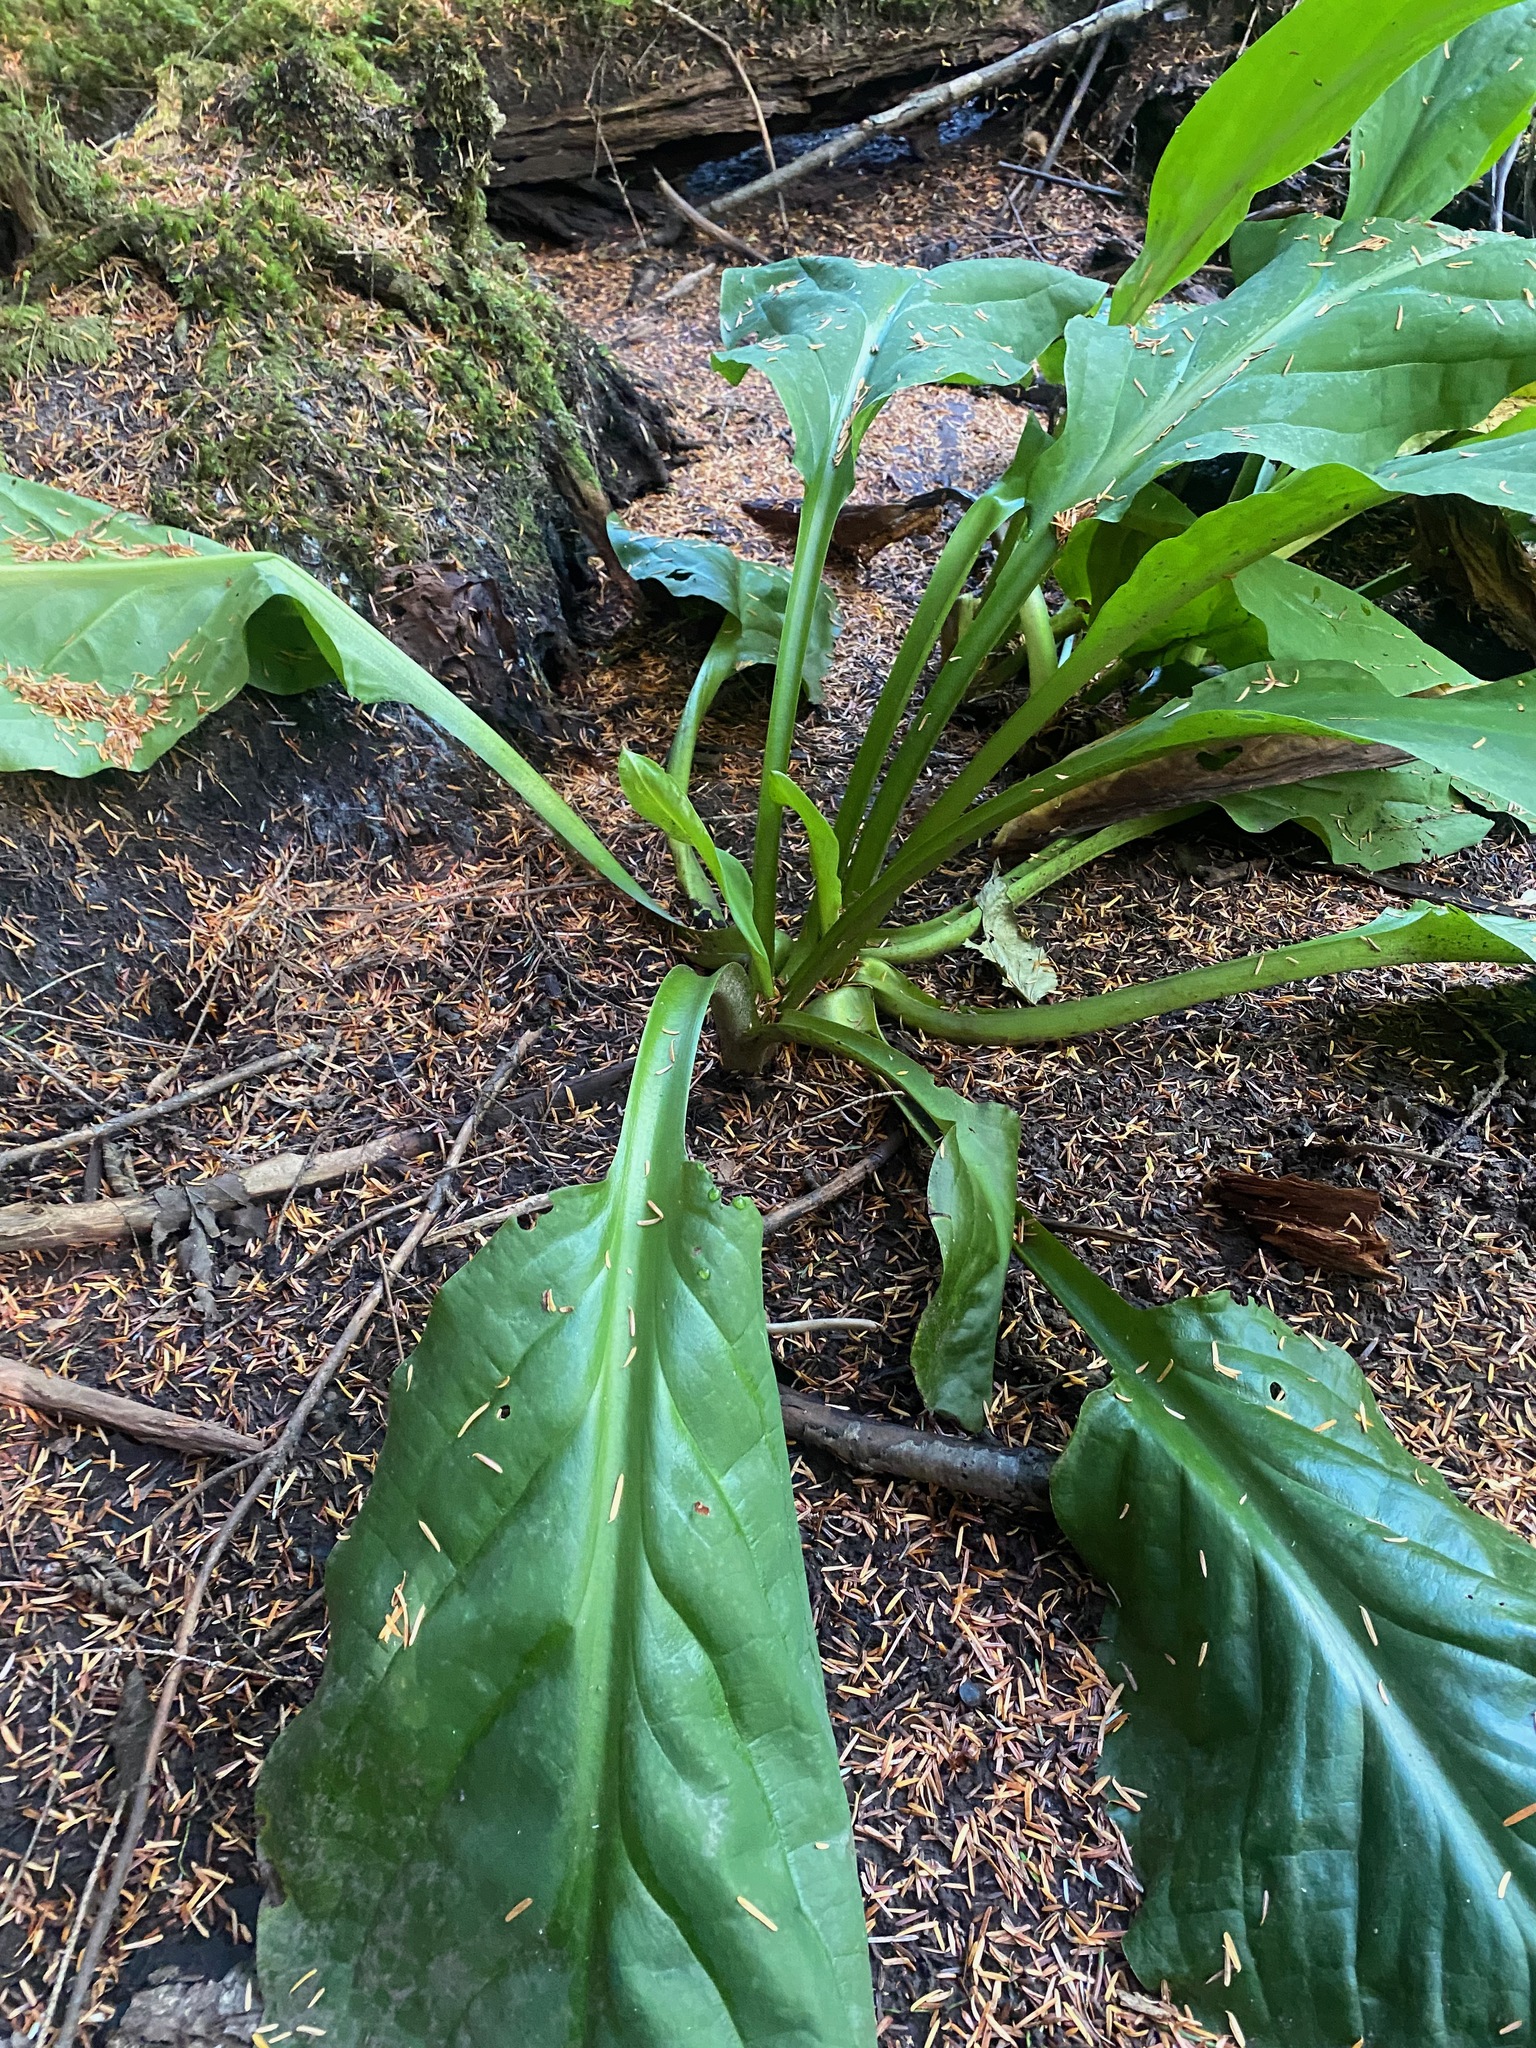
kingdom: Plantae
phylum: Tracheophyta
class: Liliopsida
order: Alismatales
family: Araceae
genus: Lysichiton
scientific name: Lysichiton americanus
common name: American skunk cabbage
